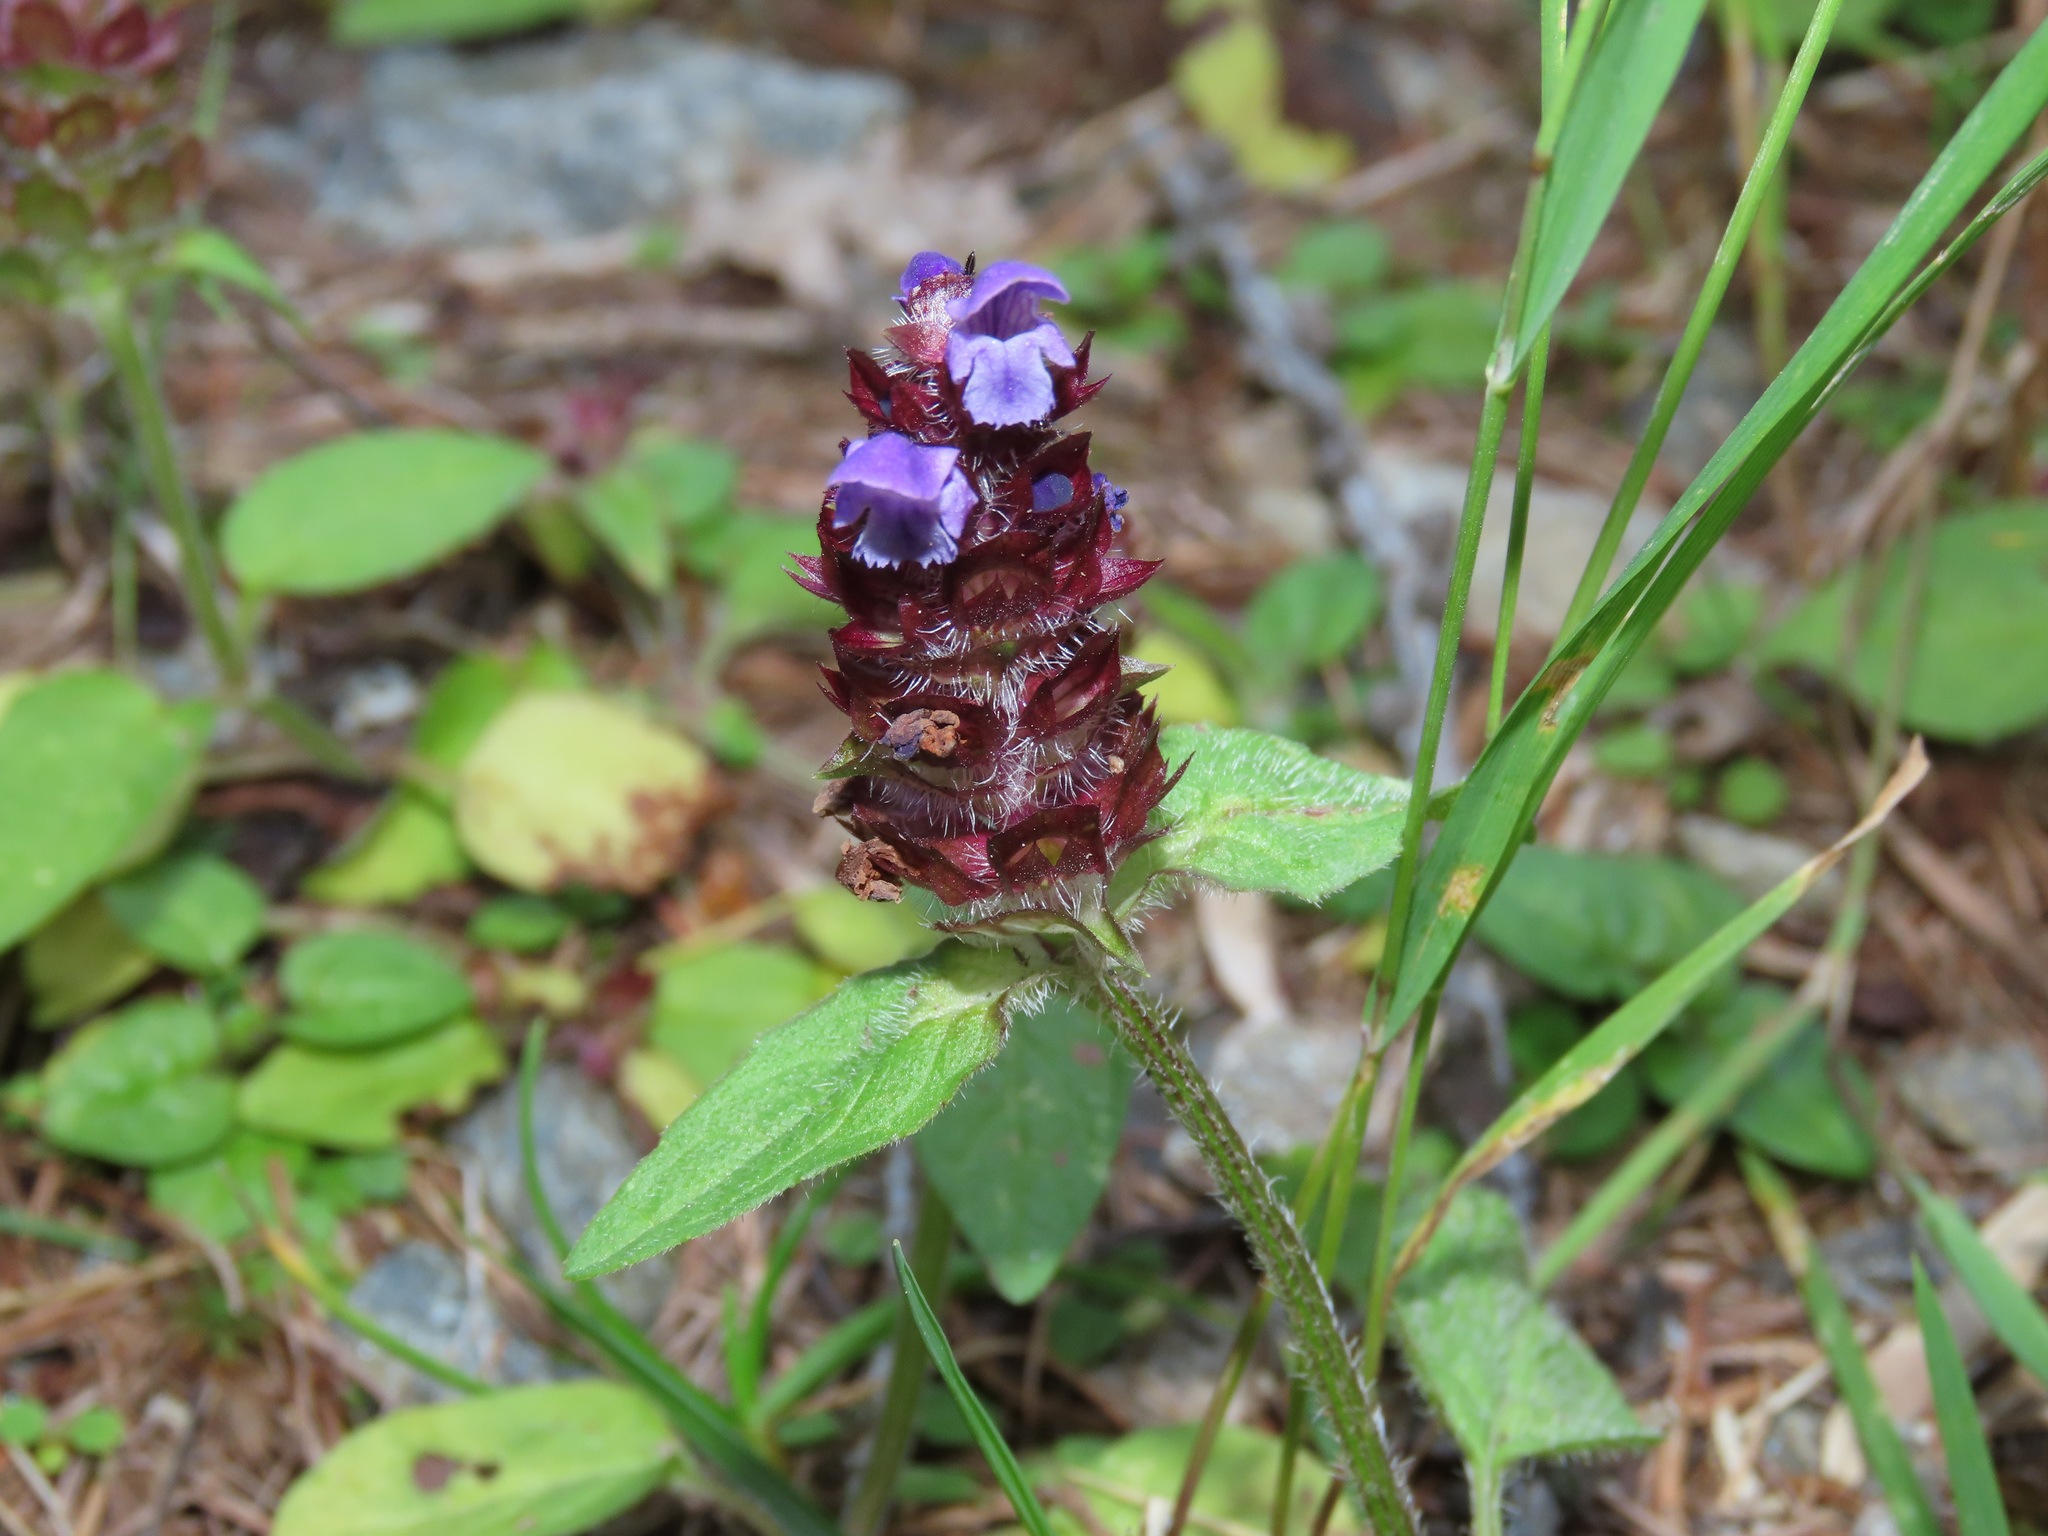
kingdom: Plantae
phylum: Tracheophyta
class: Magnoliopsida
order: Lamiales
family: Lamiaceae
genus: Prunella
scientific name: Prunella vulgaris
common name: Heal-all
